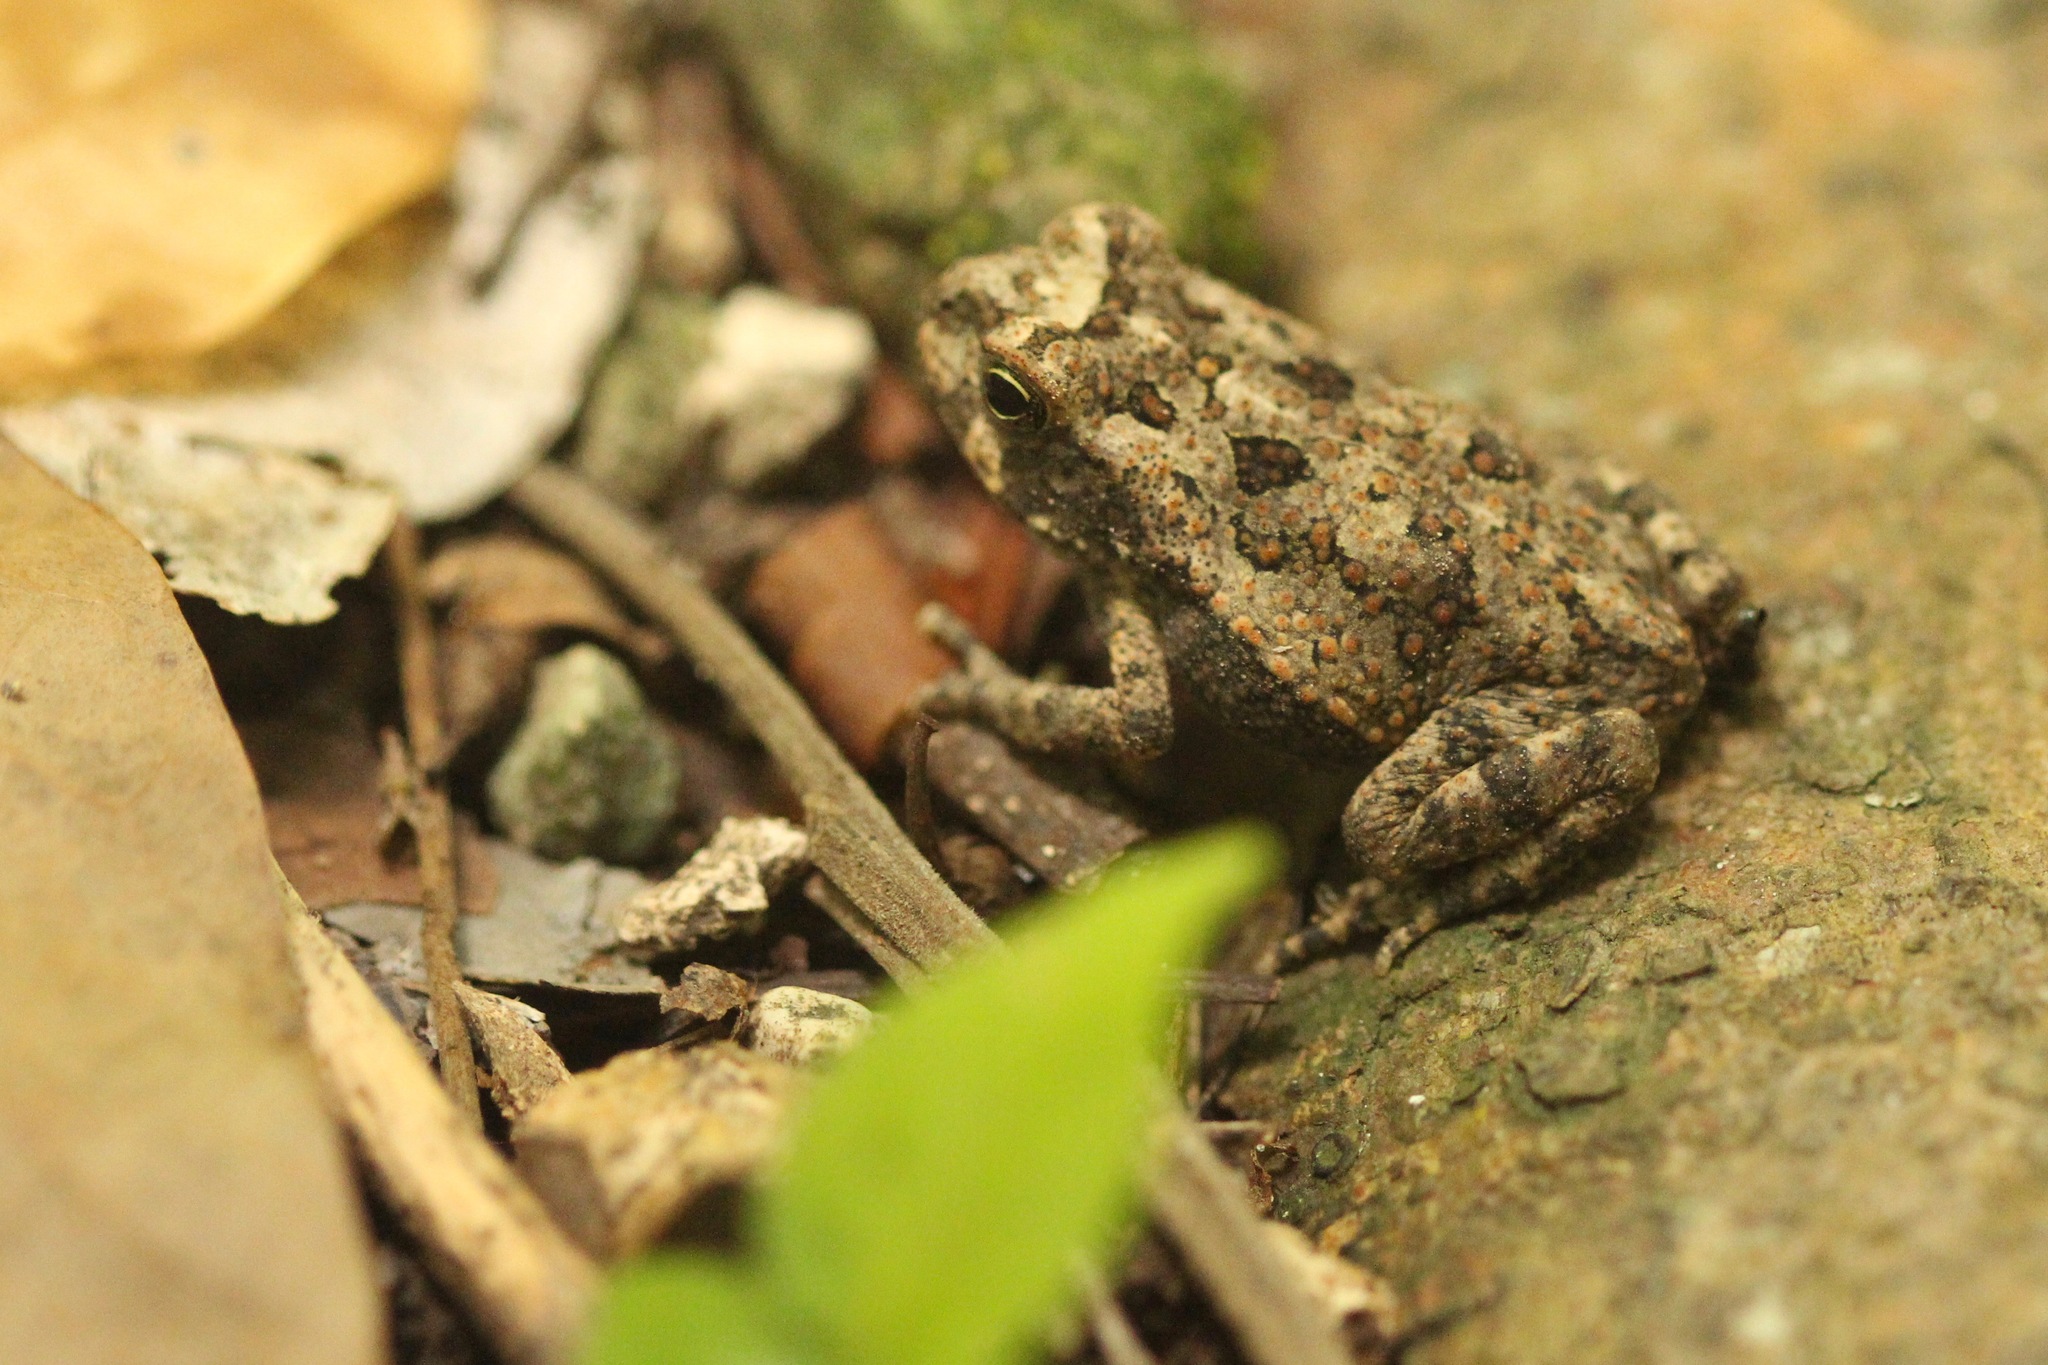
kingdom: Animalia
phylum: Chordata
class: Amphibia
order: Anura
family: Bufonidae
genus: Incilius
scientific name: Incilius valliceps
